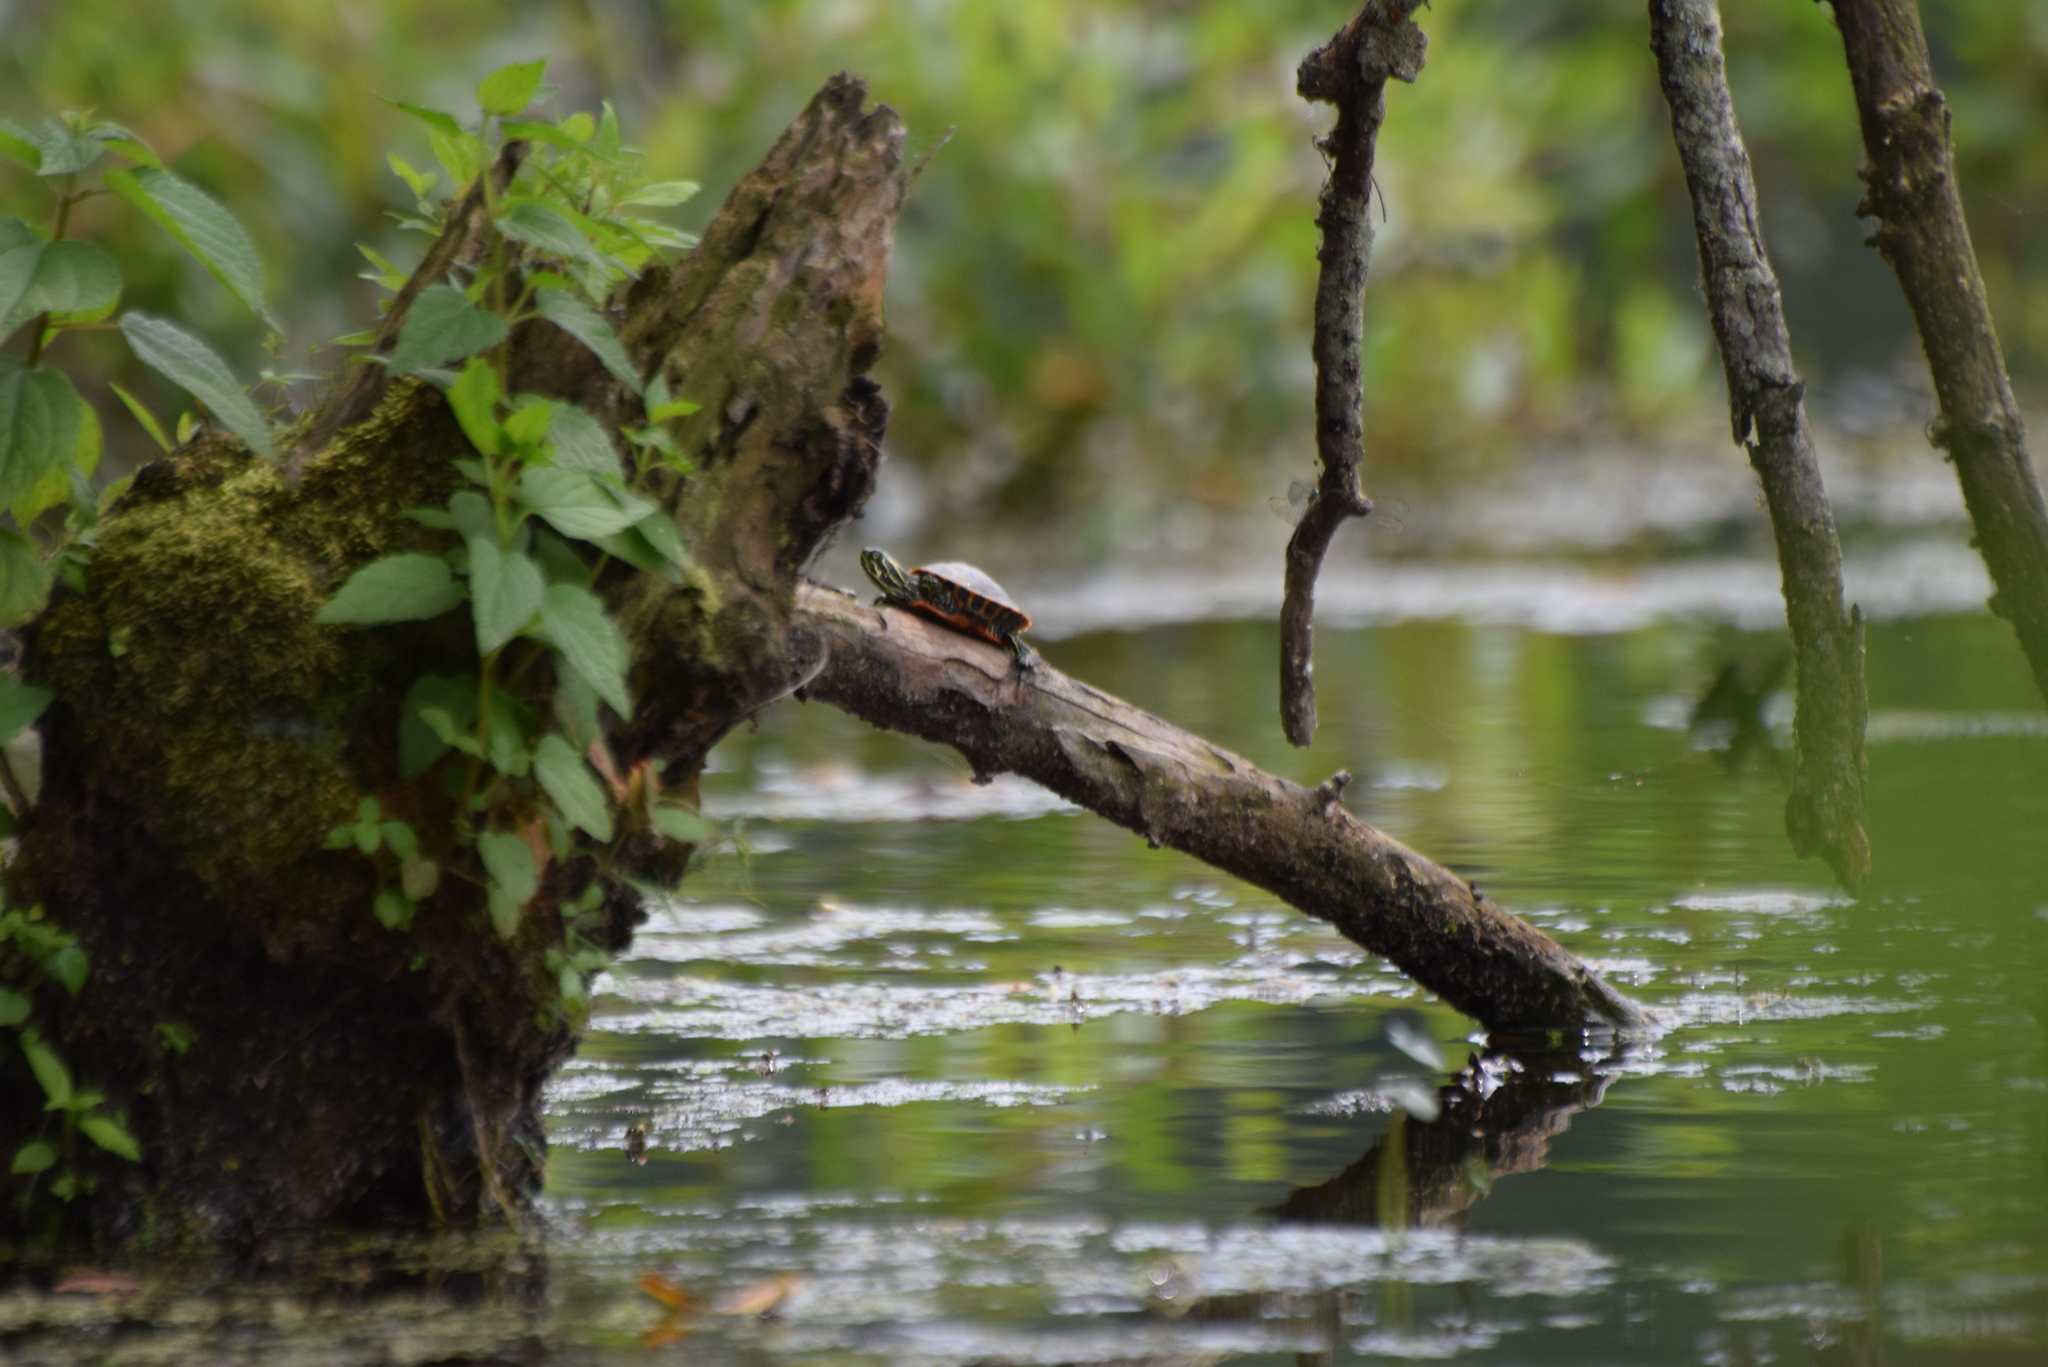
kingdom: Animalia
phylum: Chordata
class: Testudines
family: Emydidae
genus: Pseudemys
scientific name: Pseudemys rubriventris
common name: American red-bellied turtle
